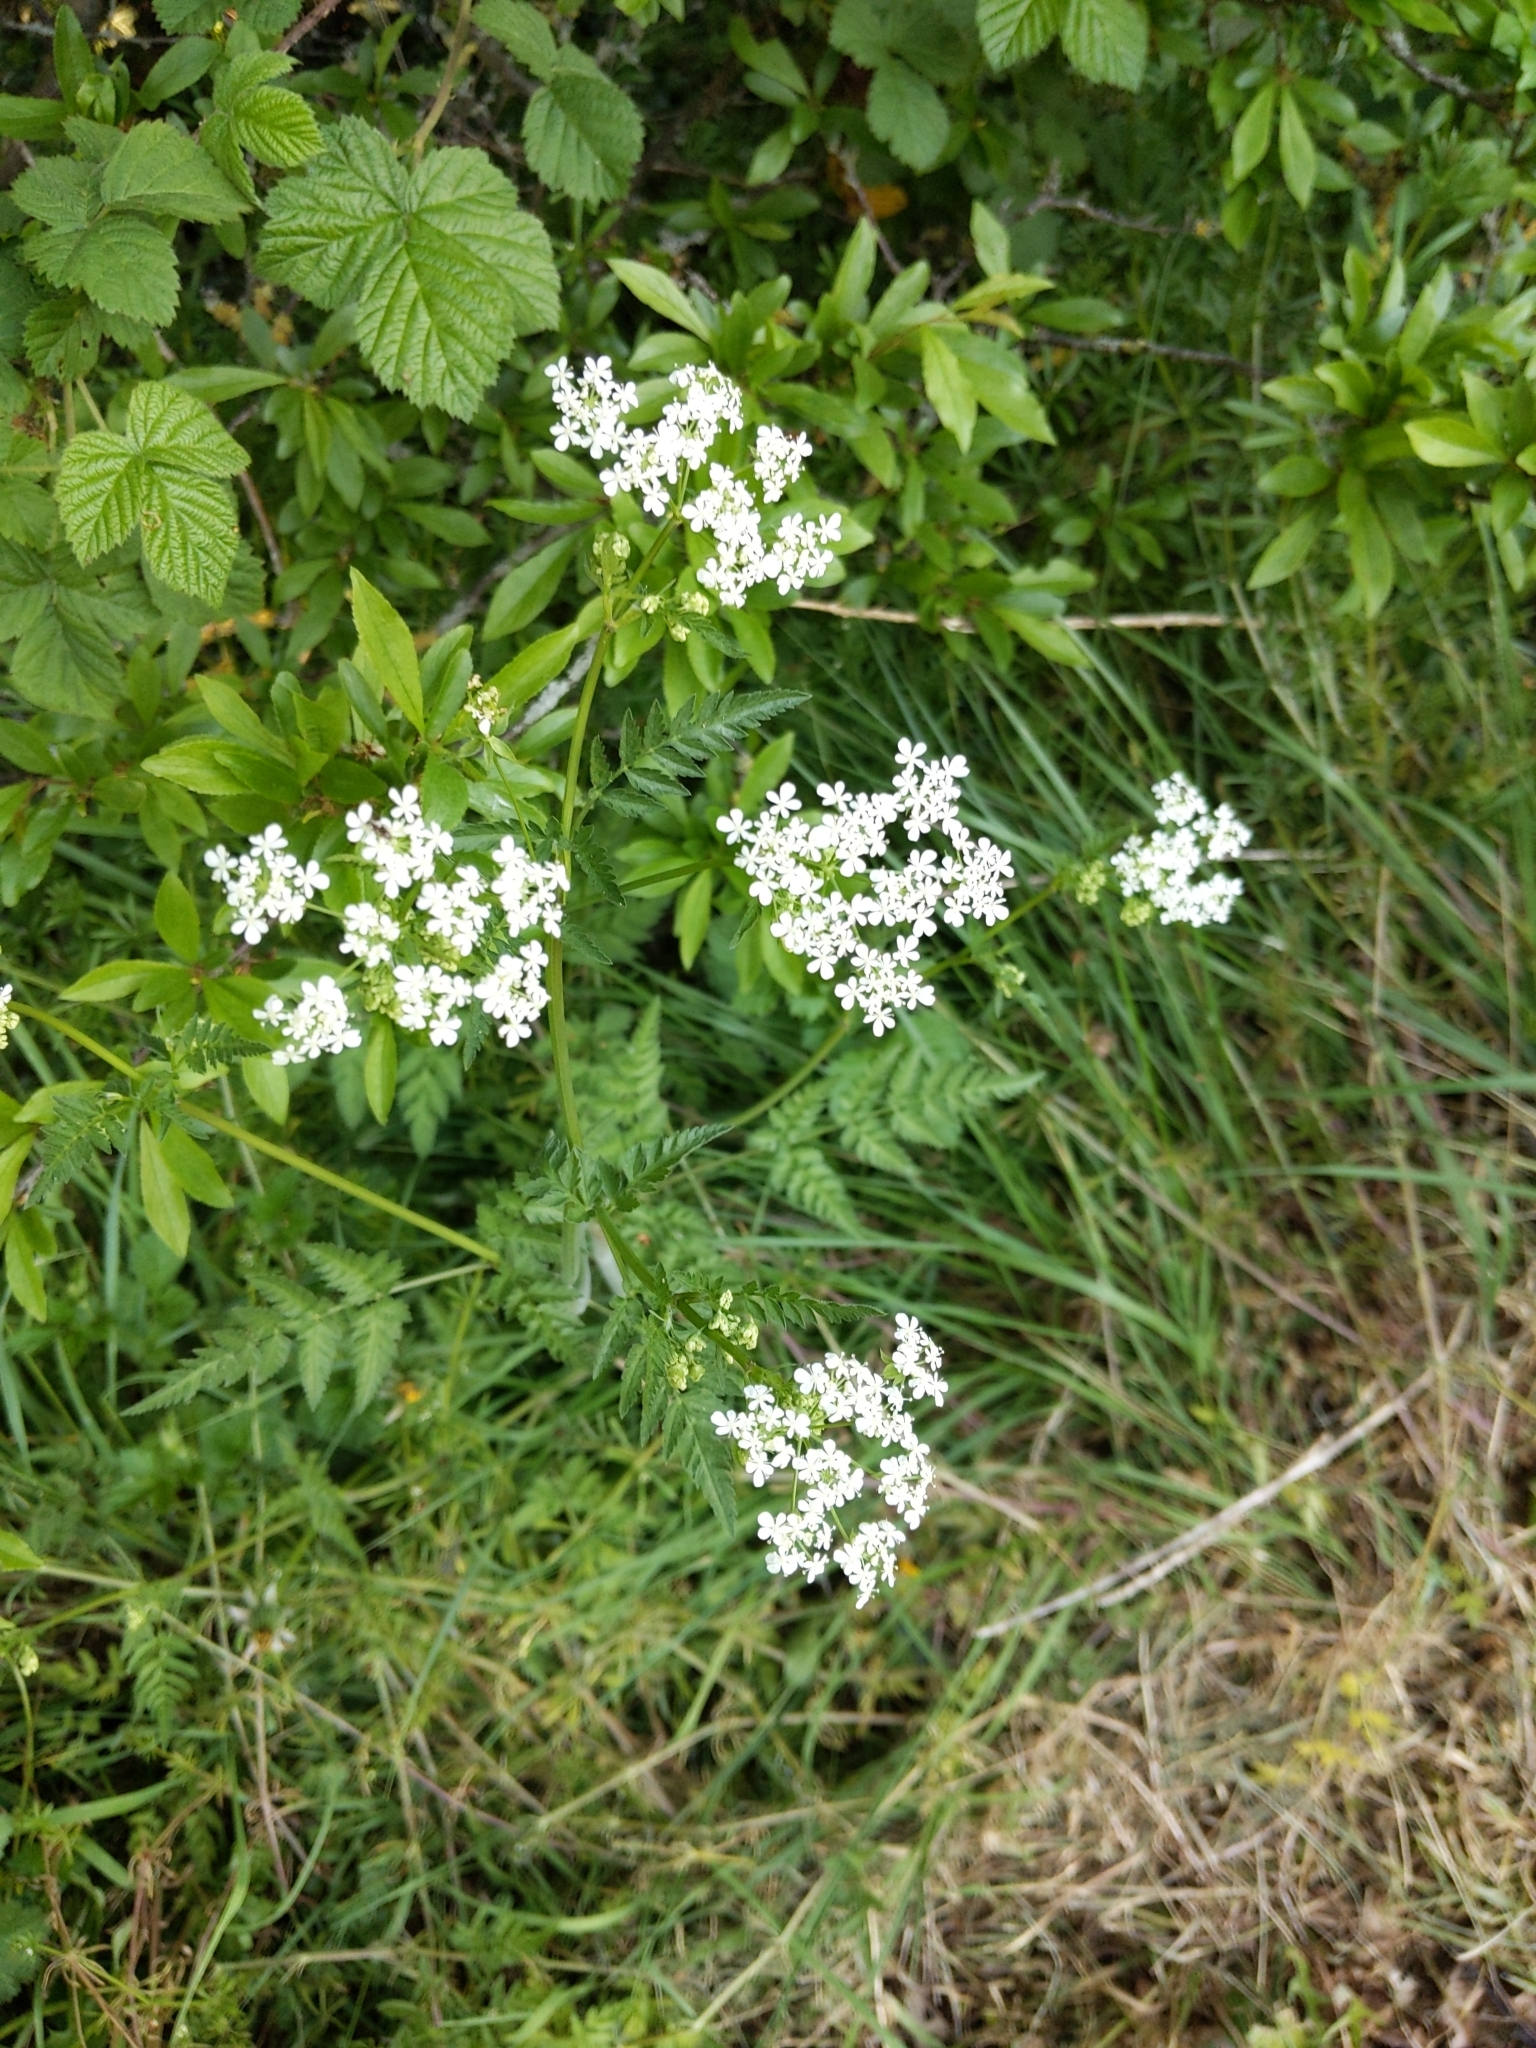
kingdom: Plantae
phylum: Tracheophyta
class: Magnoliopsida
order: Apiales
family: Apiaceae
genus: Anthriscus
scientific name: Anthriscus sylvestris
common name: Cow parsley
